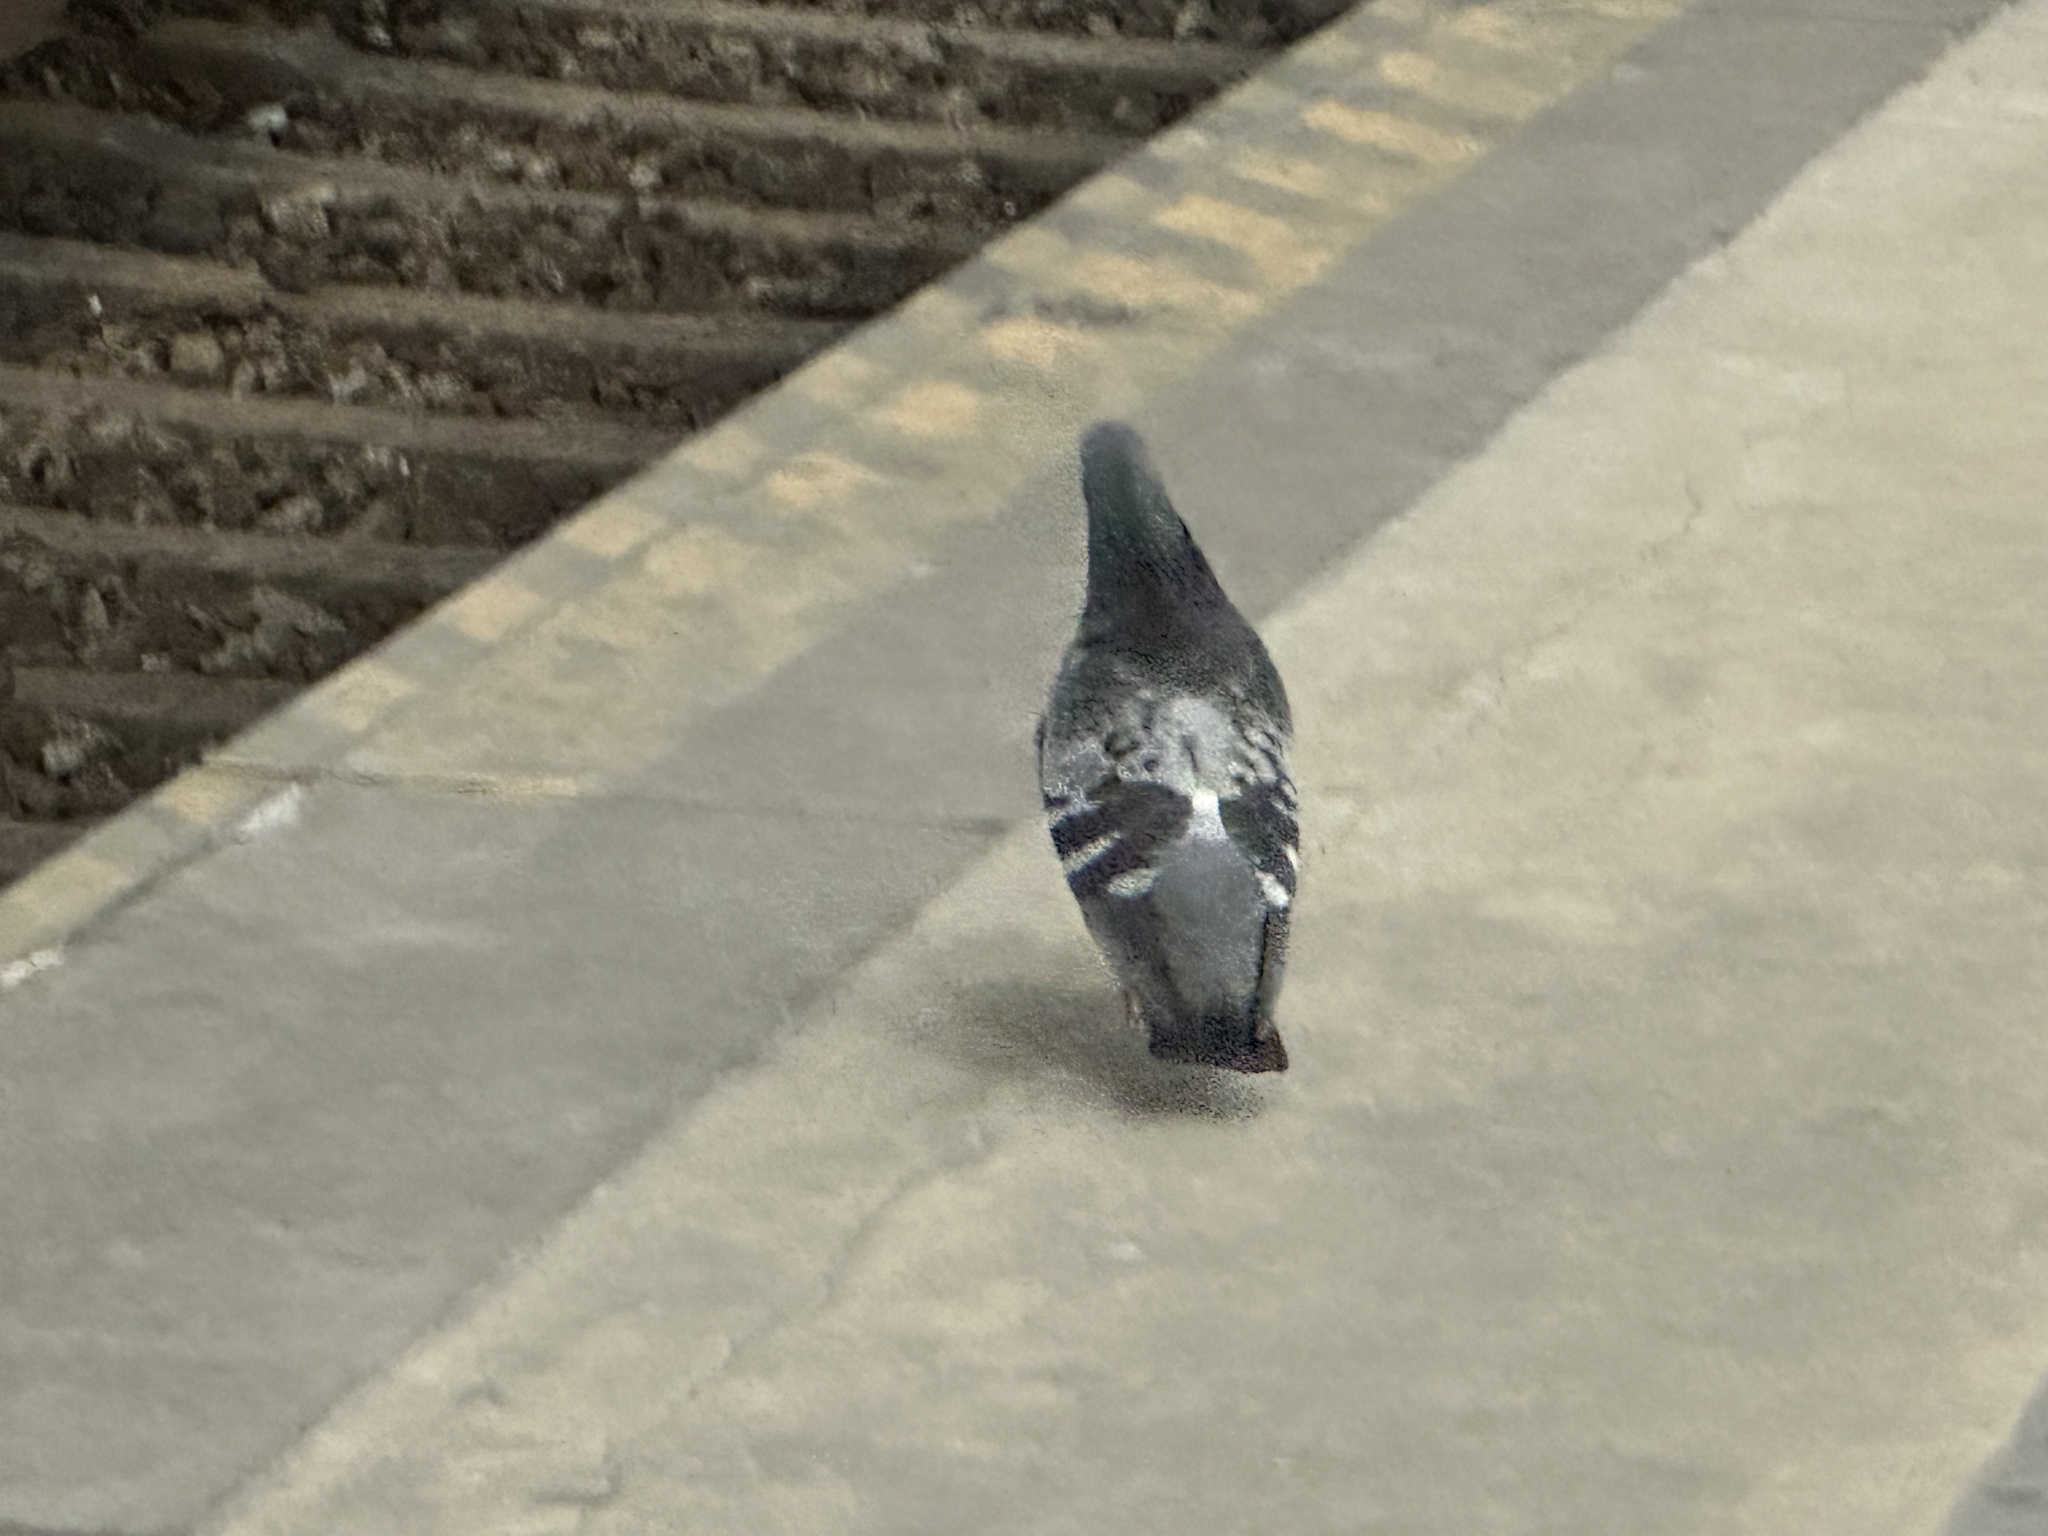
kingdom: Animalia
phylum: Chordata
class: Aves
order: Columbiformes
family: Columbidae
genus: Columba
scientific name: Columba livia
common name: Rock pigeon
